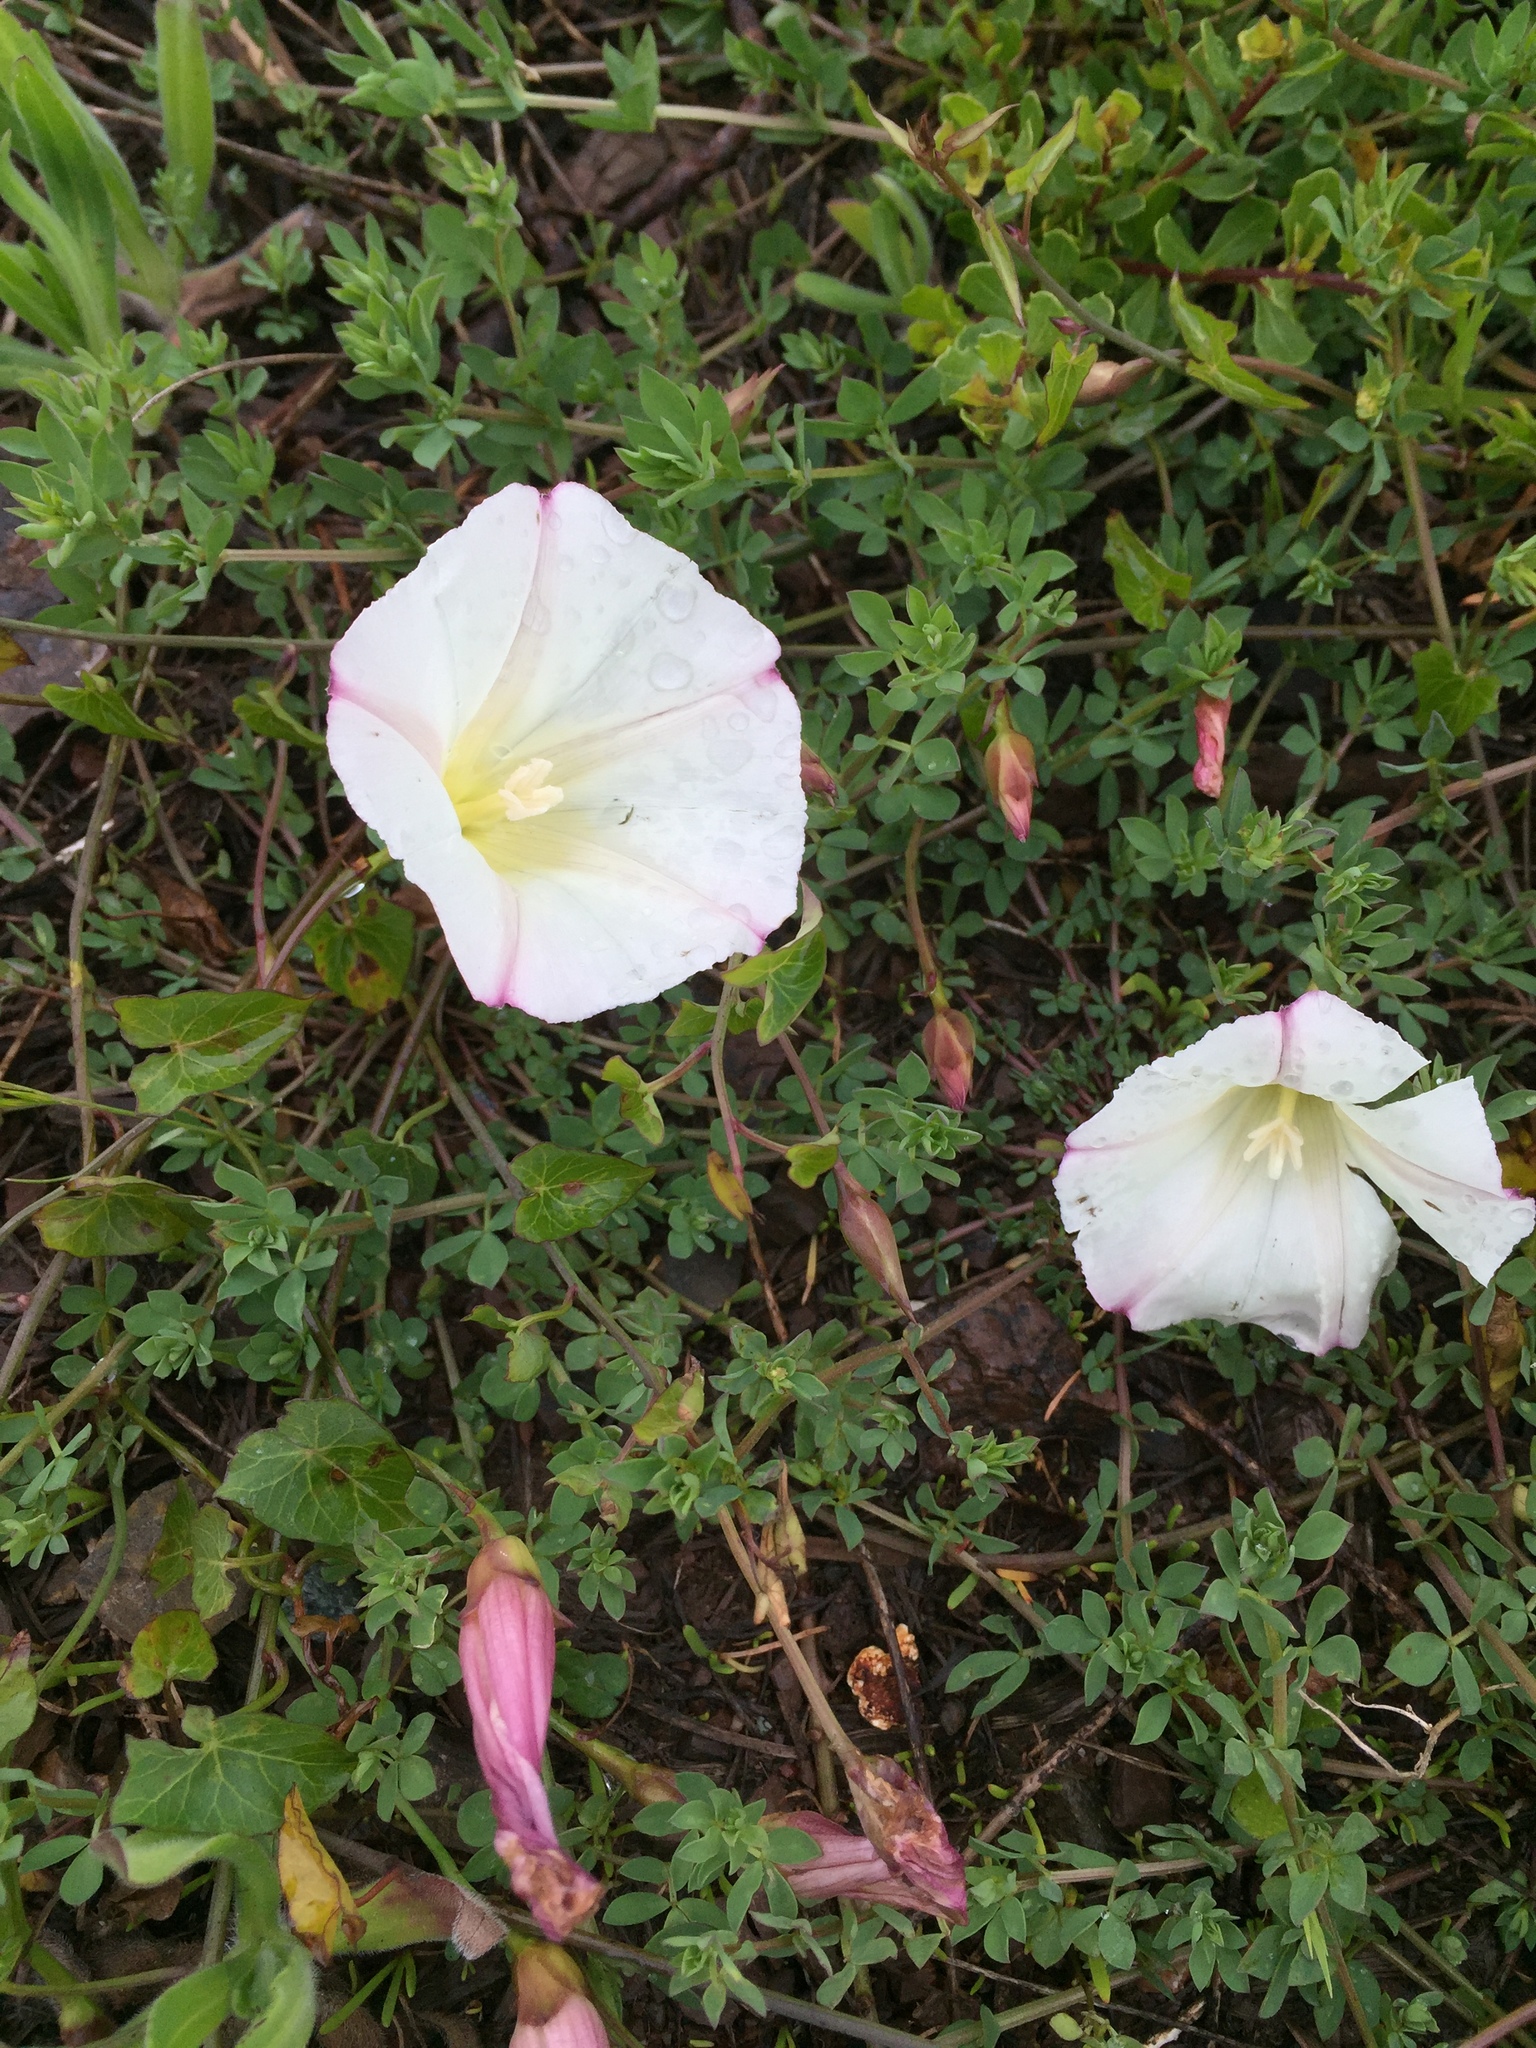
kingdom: Plantae
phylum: Tracheophyta
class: Magnoliopsida
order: Solanales
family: Convolvulaceae
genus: Calystegia
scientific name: Calystegia purpurata
